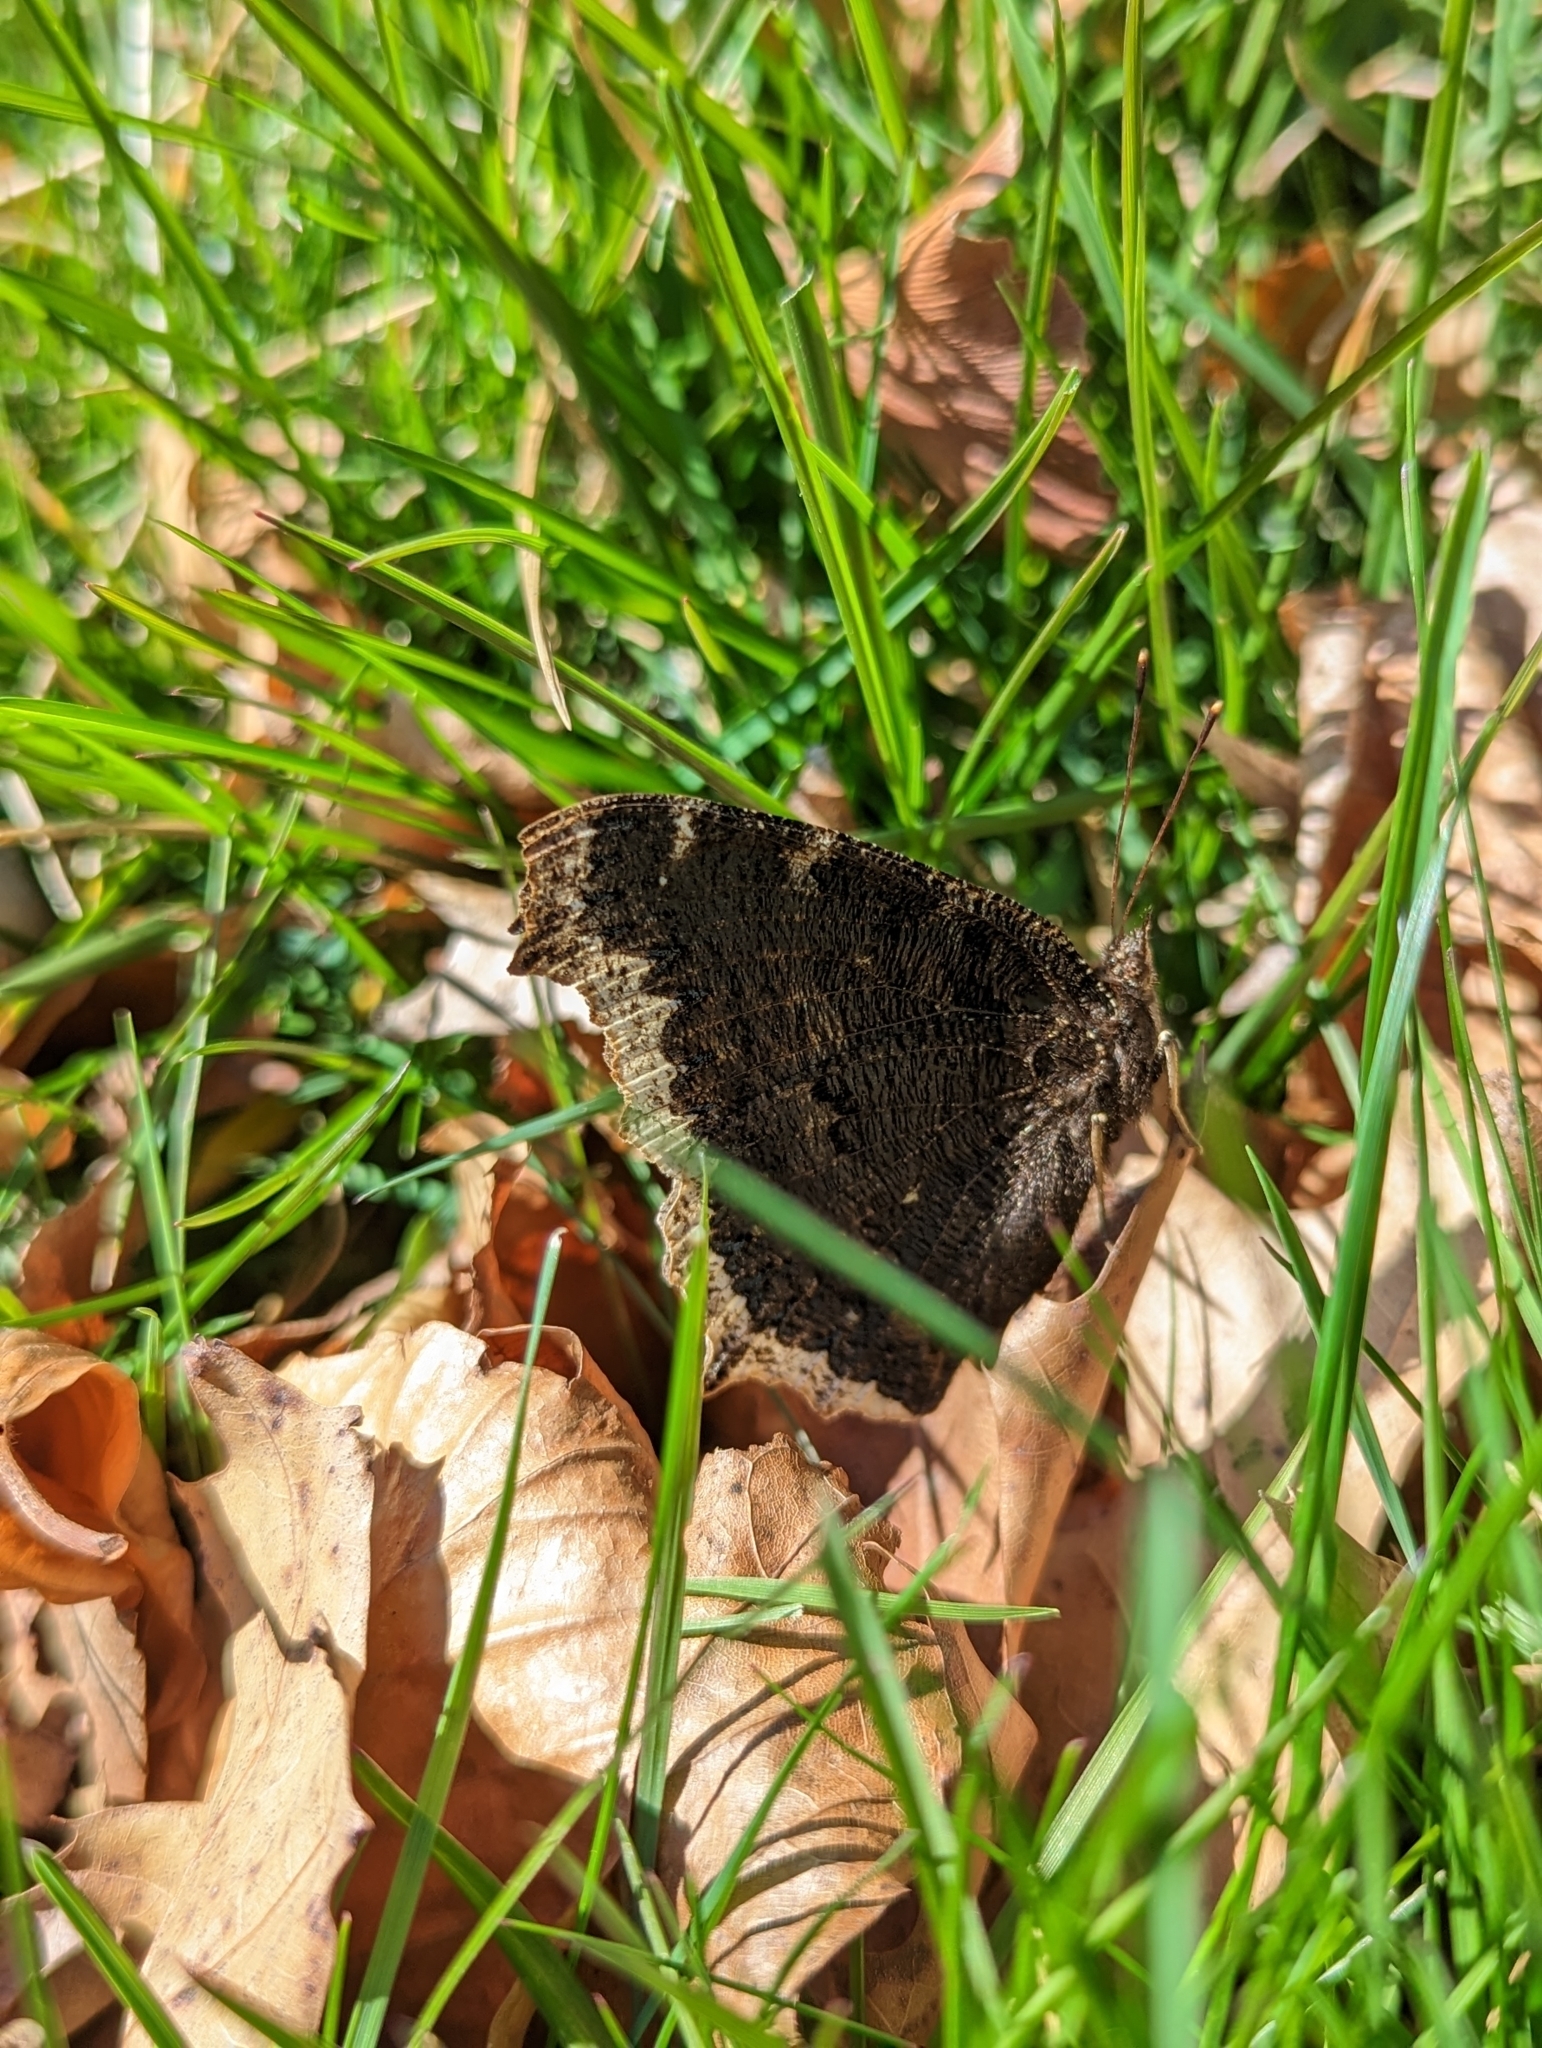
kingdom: Animalia
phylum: Arthropoda
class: Insecta
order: Lepidoptera
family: Nymphalidae
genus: Nymphalis
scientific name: Nymphalis antiopa
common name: Camberwell beauty
